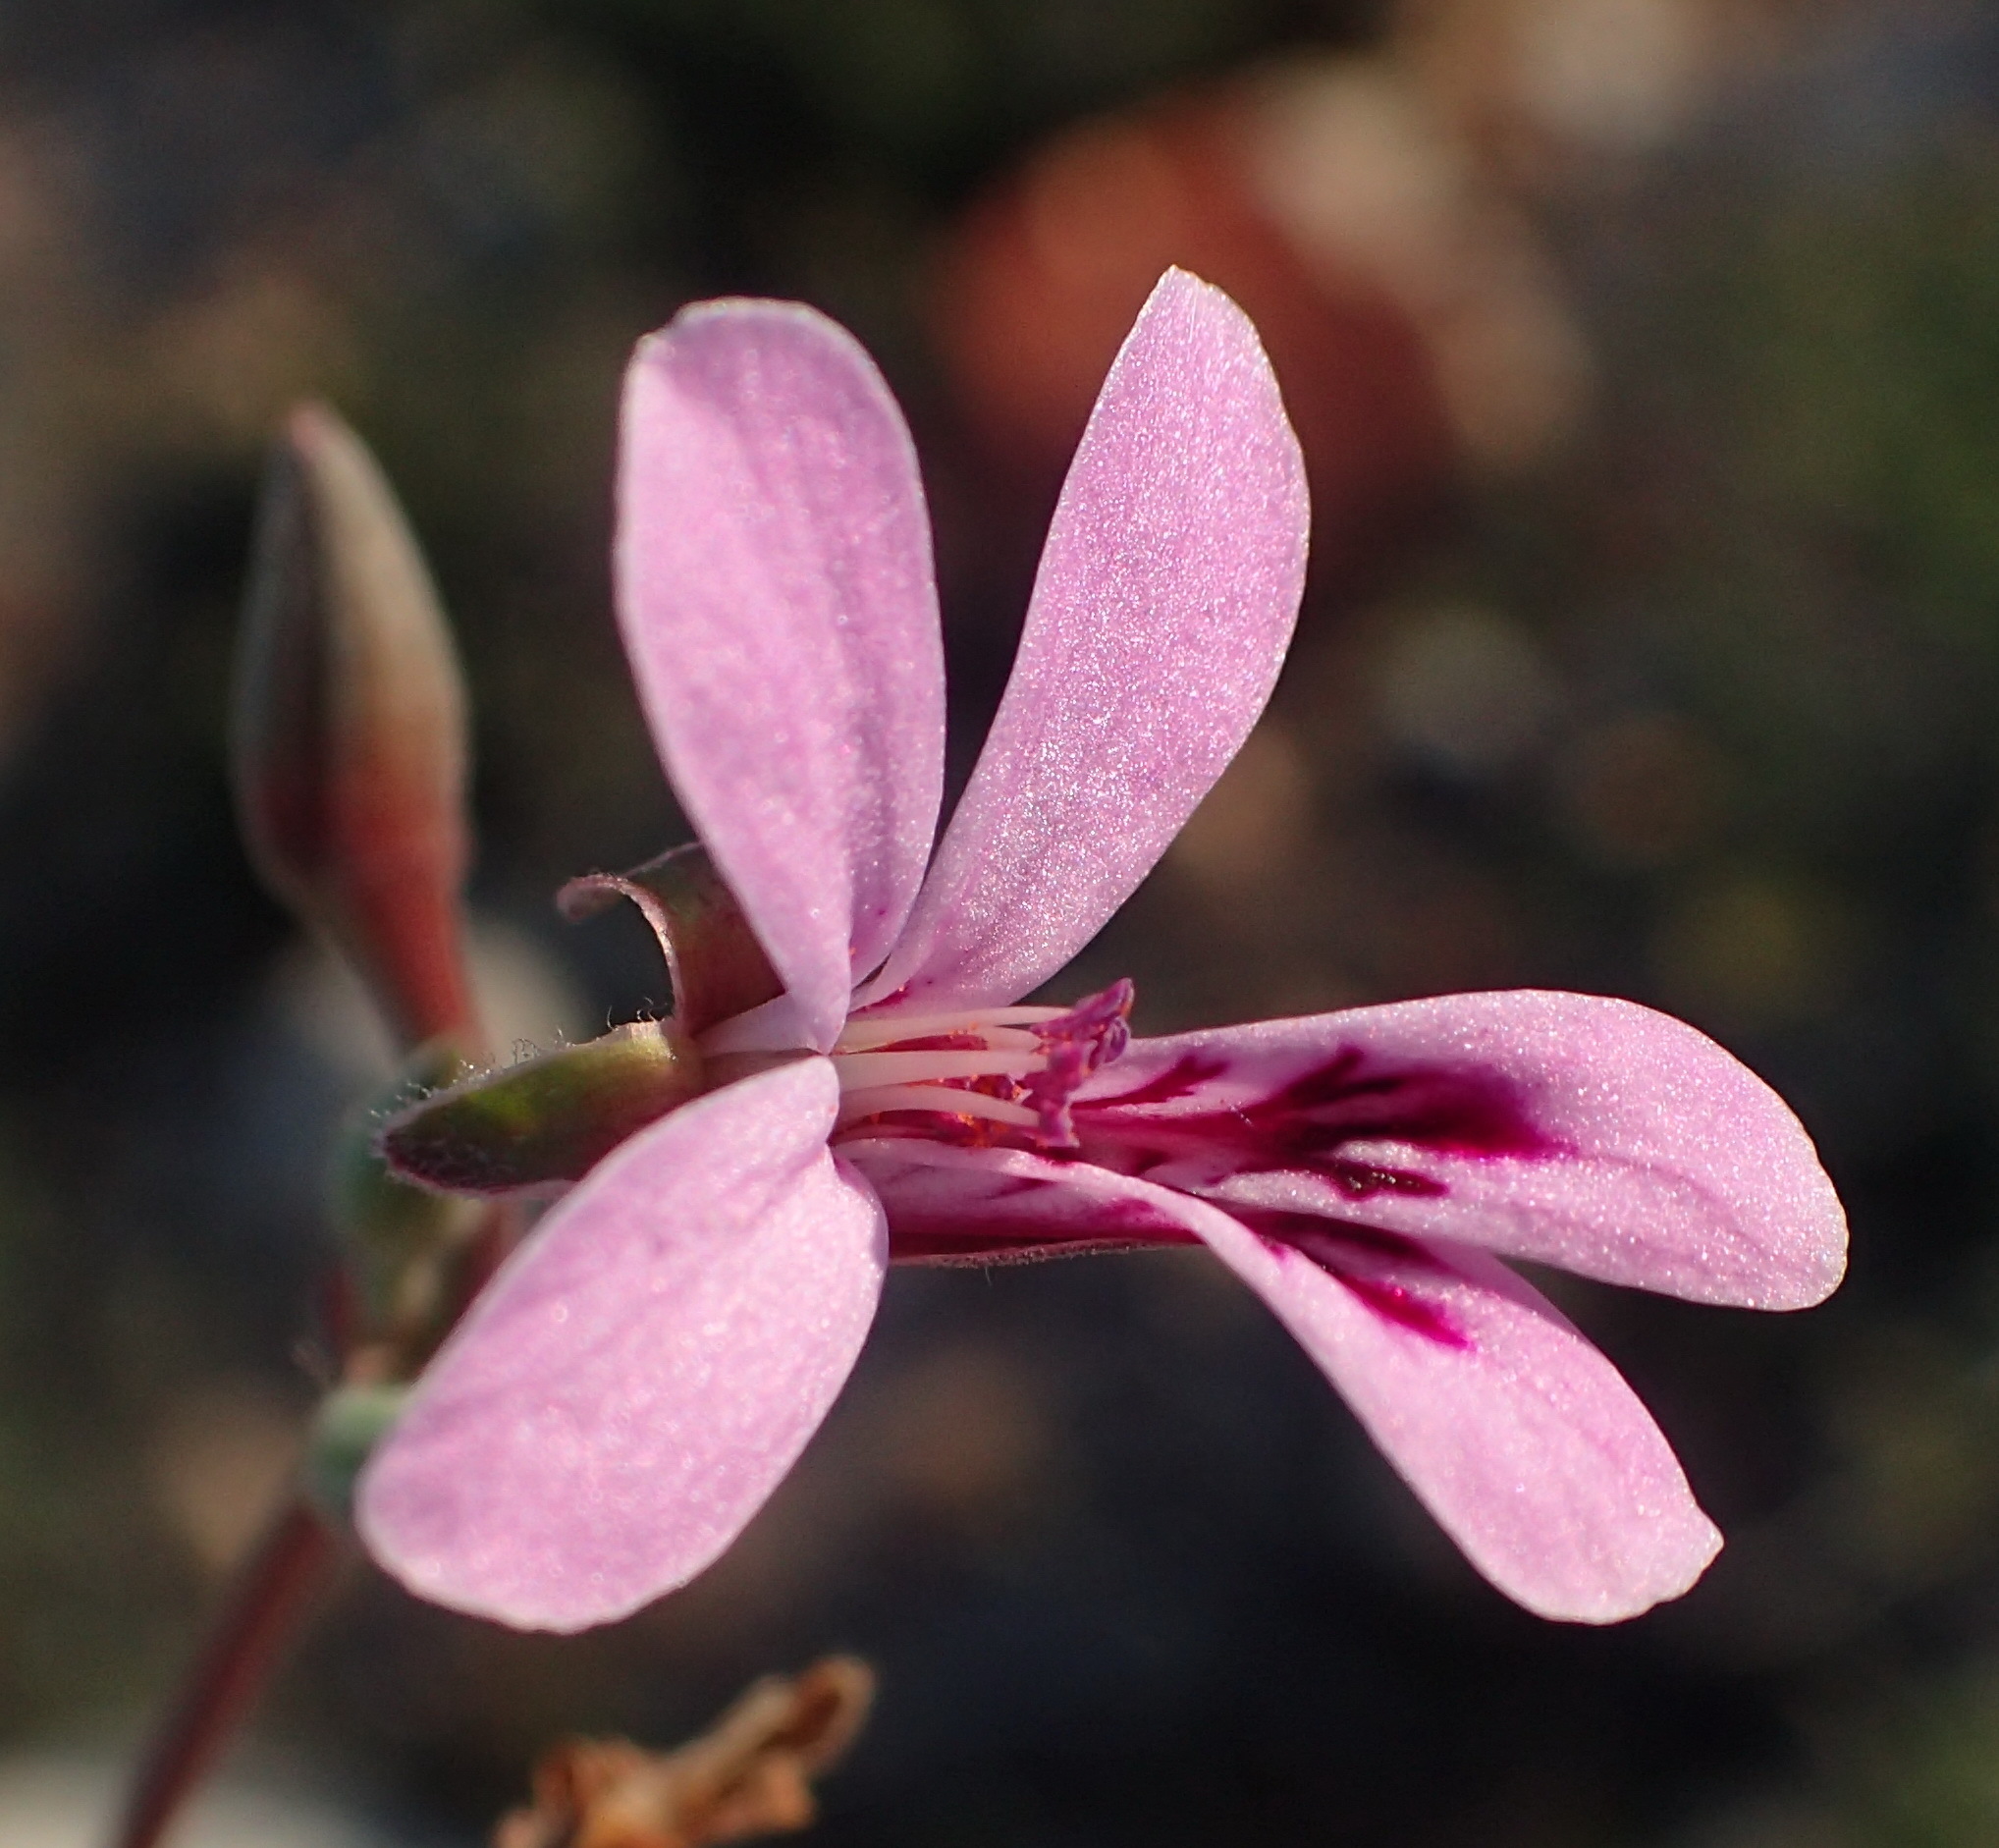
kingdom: Plantae
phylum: Tracheophyta
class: Magnoliopsida
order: Geraniales
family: Geraniaceae
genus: Pelargonium
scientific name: Pelargonium exstipulatum
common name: Soft-leaf trifid pelargonium
